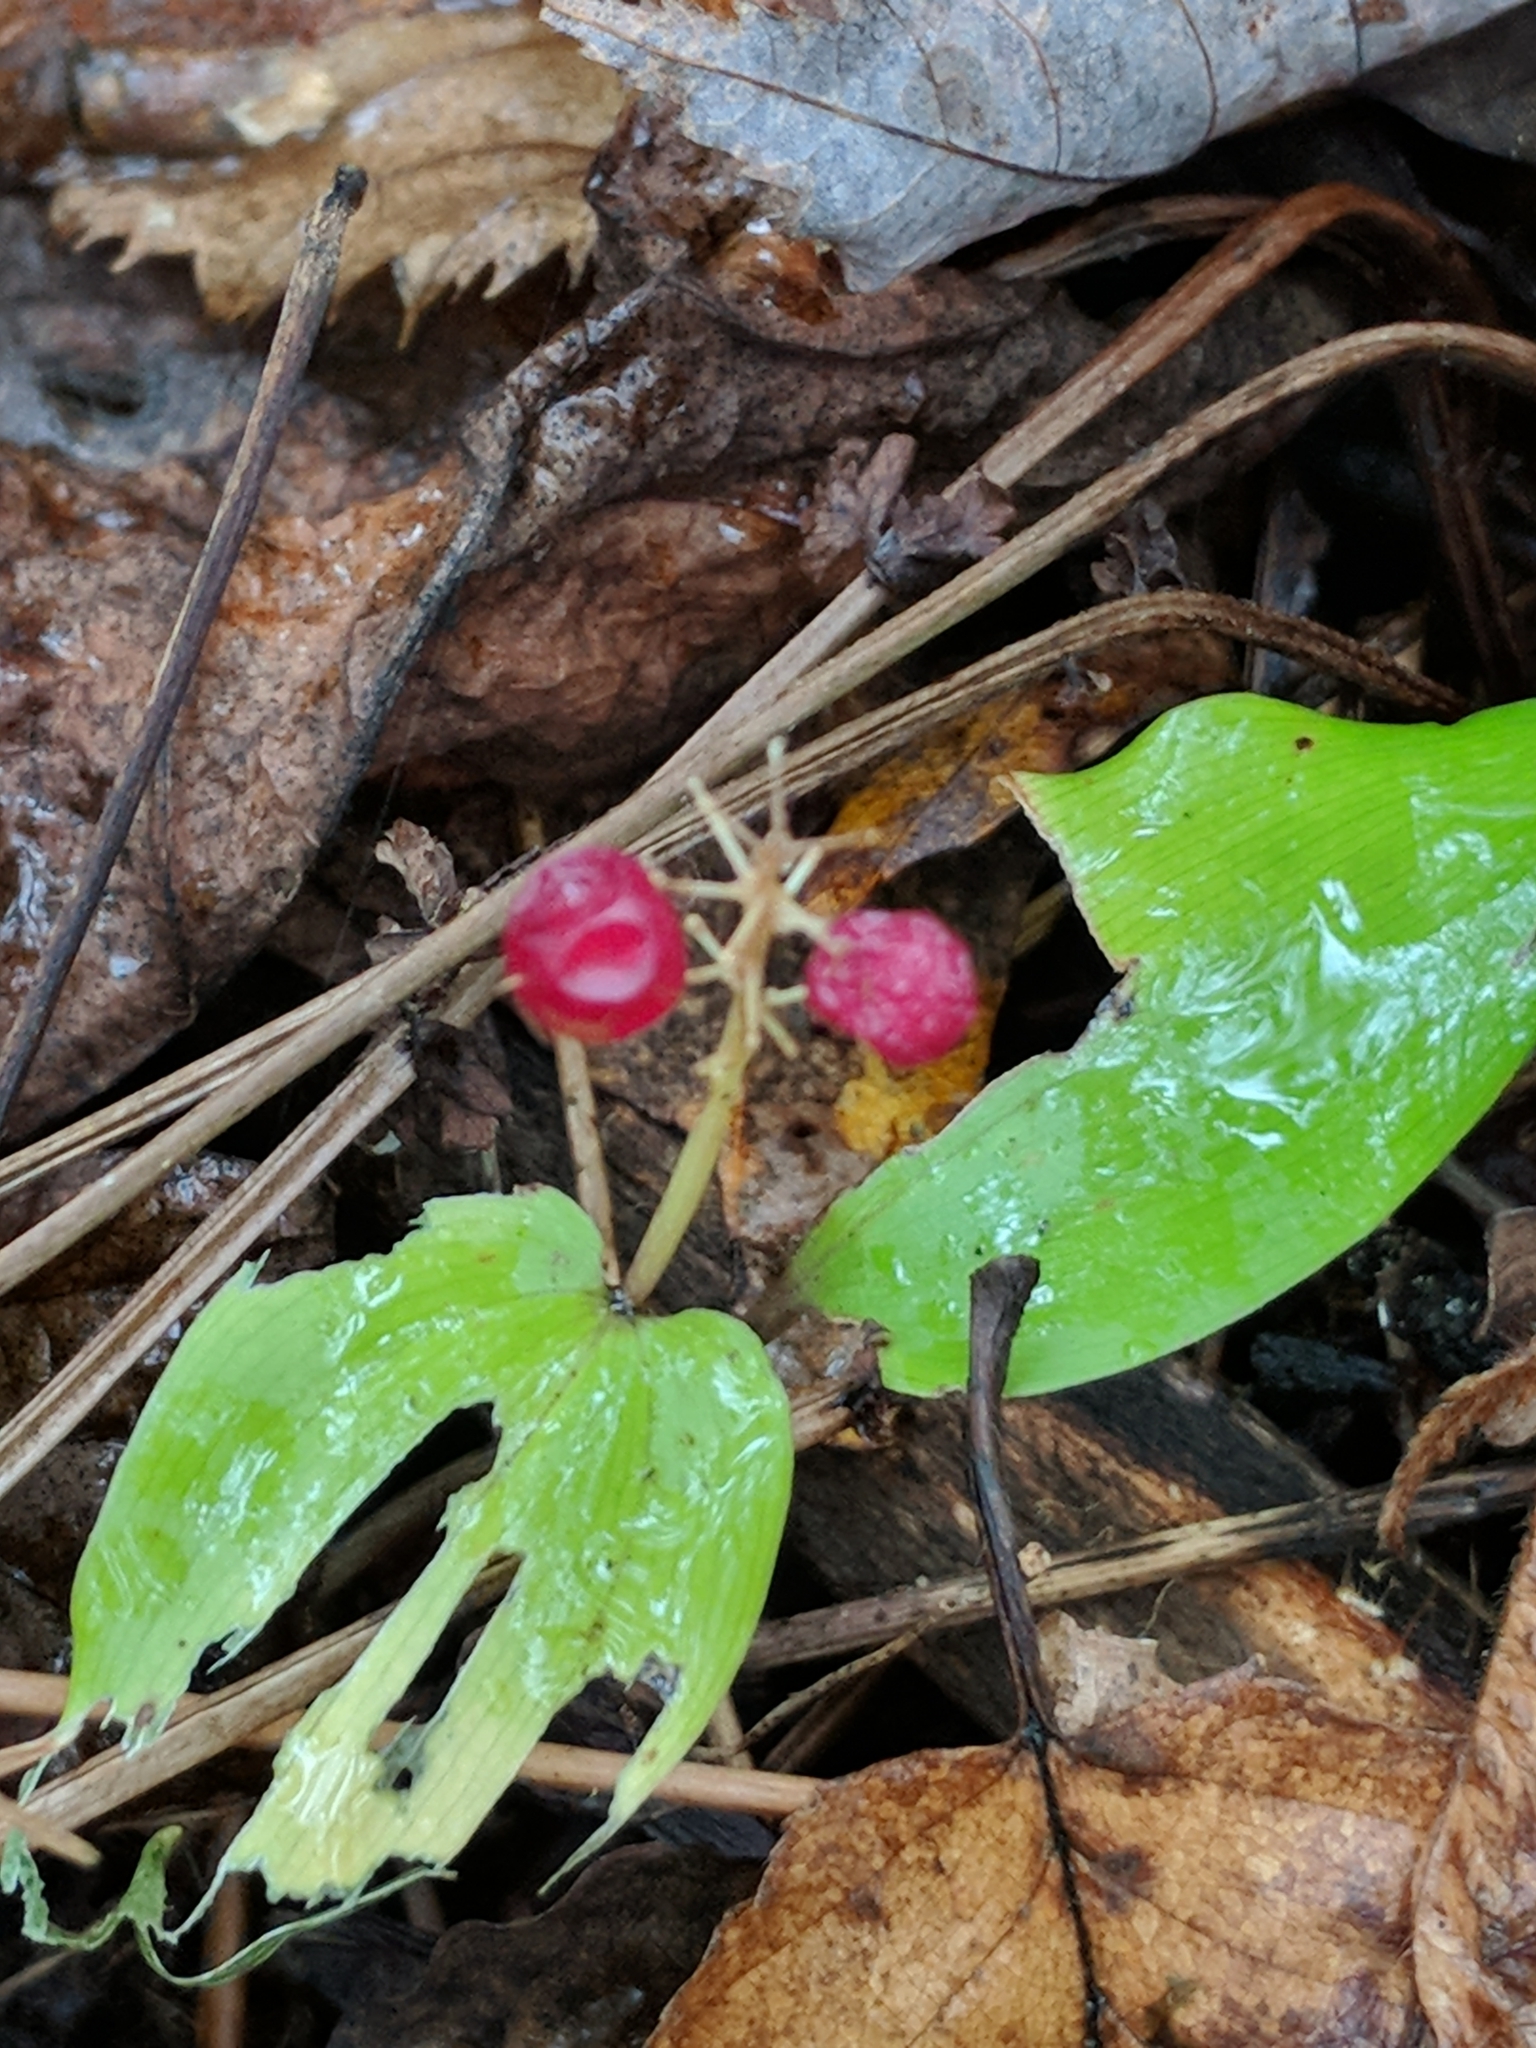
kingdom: Plantae
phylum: Tracheophyta
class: Liliopsida
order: Asparagales
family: Asparagaceae
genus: Maianthemum
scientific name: Maianthemum canadense
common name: False lily-of-the-valley
